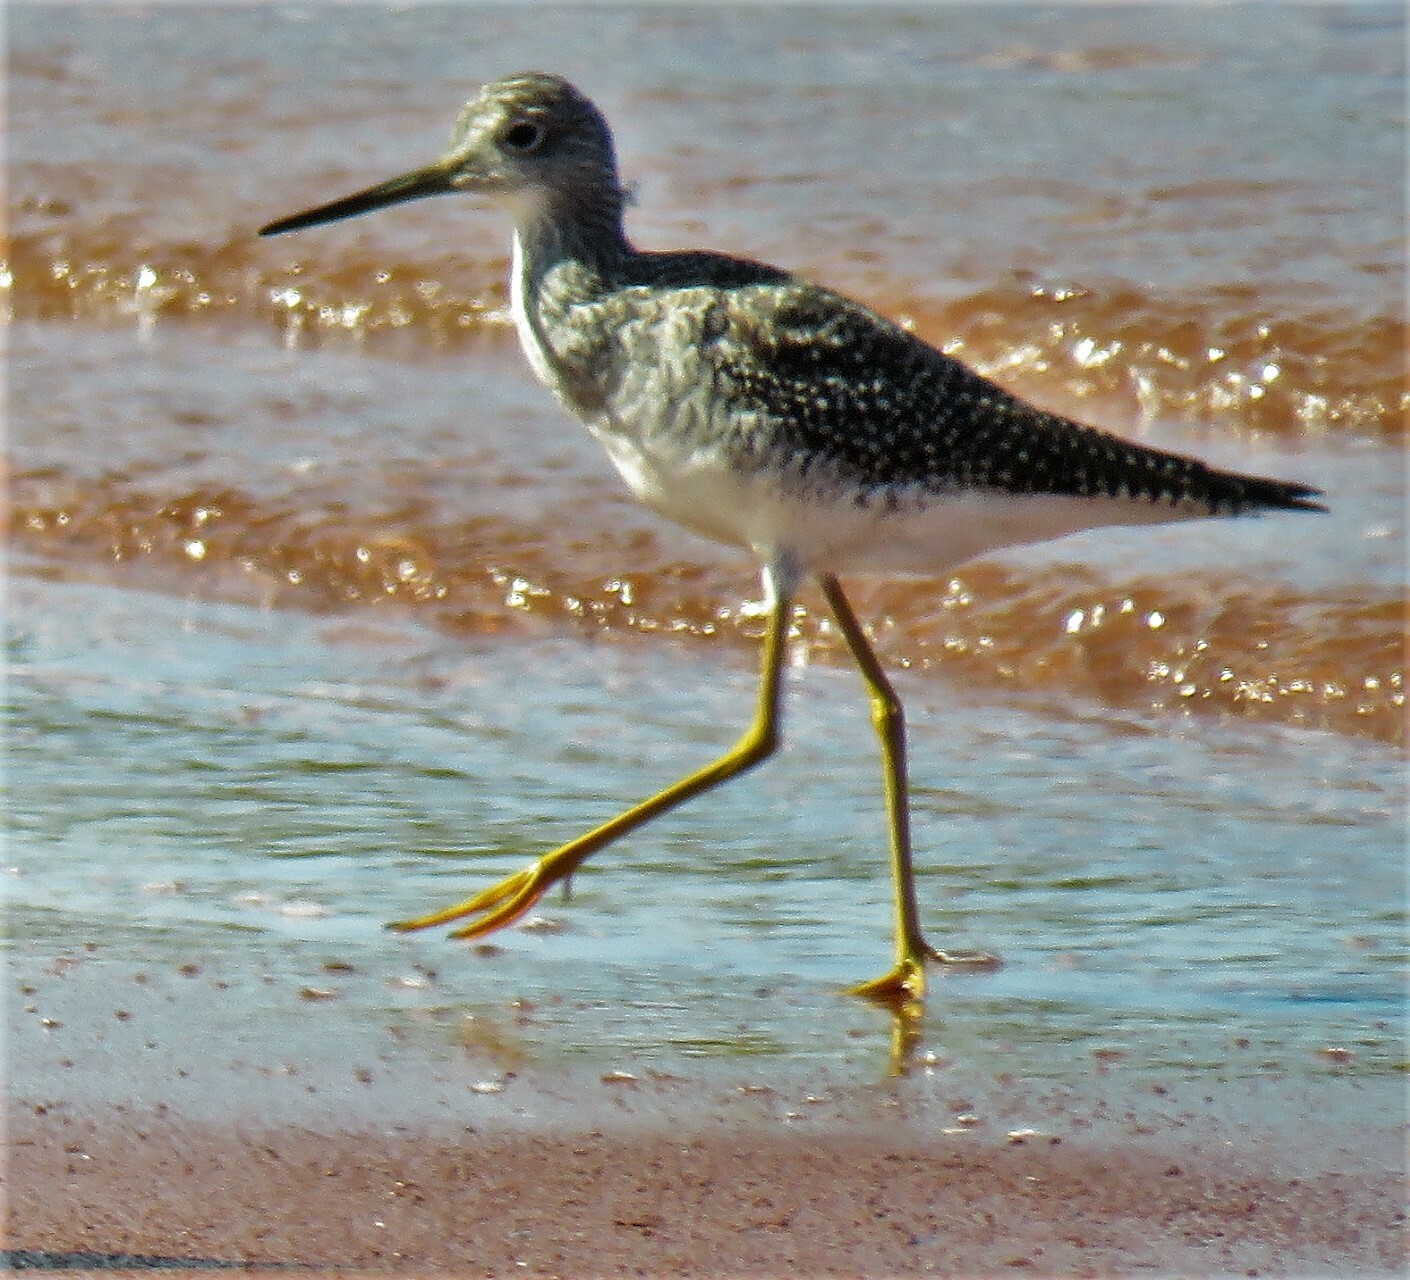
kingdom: Animalia
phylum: Chordata
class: Aves
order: Charadriiformes
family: Scolopacidae
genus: Tringa
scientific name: Tringa melanoleuca
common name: Greater yellowlegs
